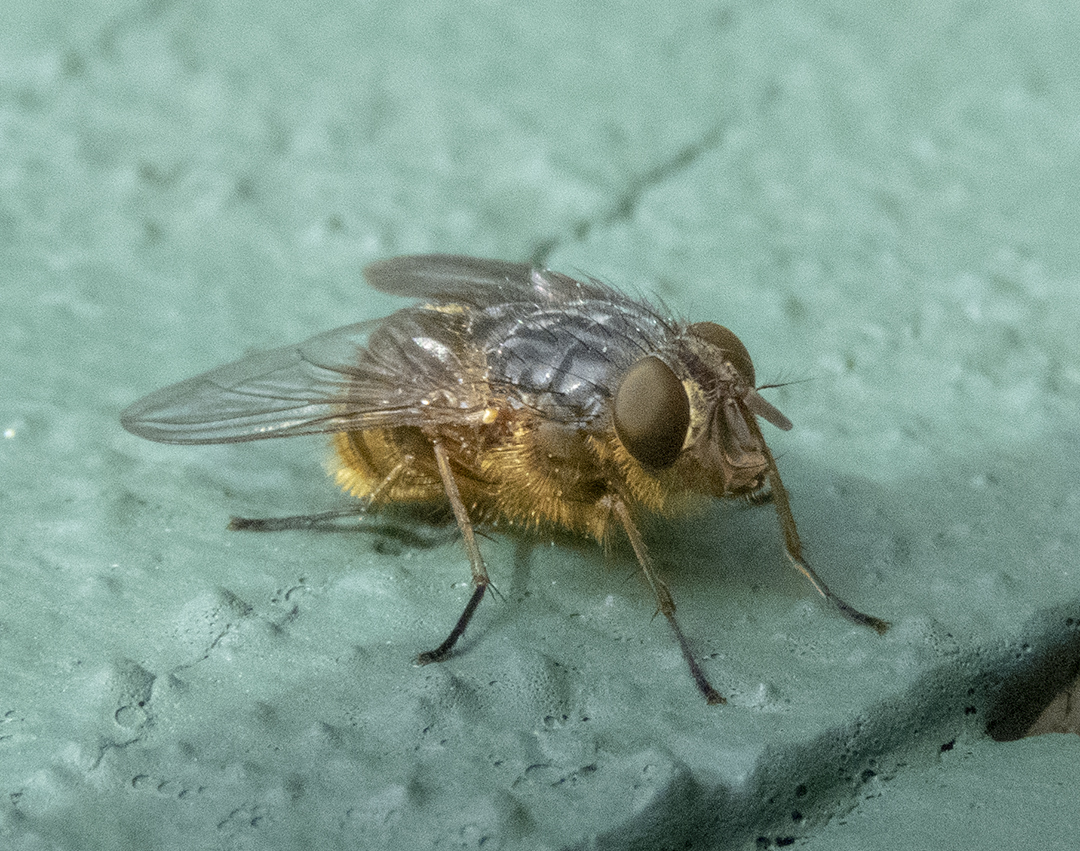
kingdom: Animalia
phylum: Arthropoda
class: Insecta
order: Diptera
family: Calliphoridae
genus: Calliphora
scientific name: Calliphora hilli
